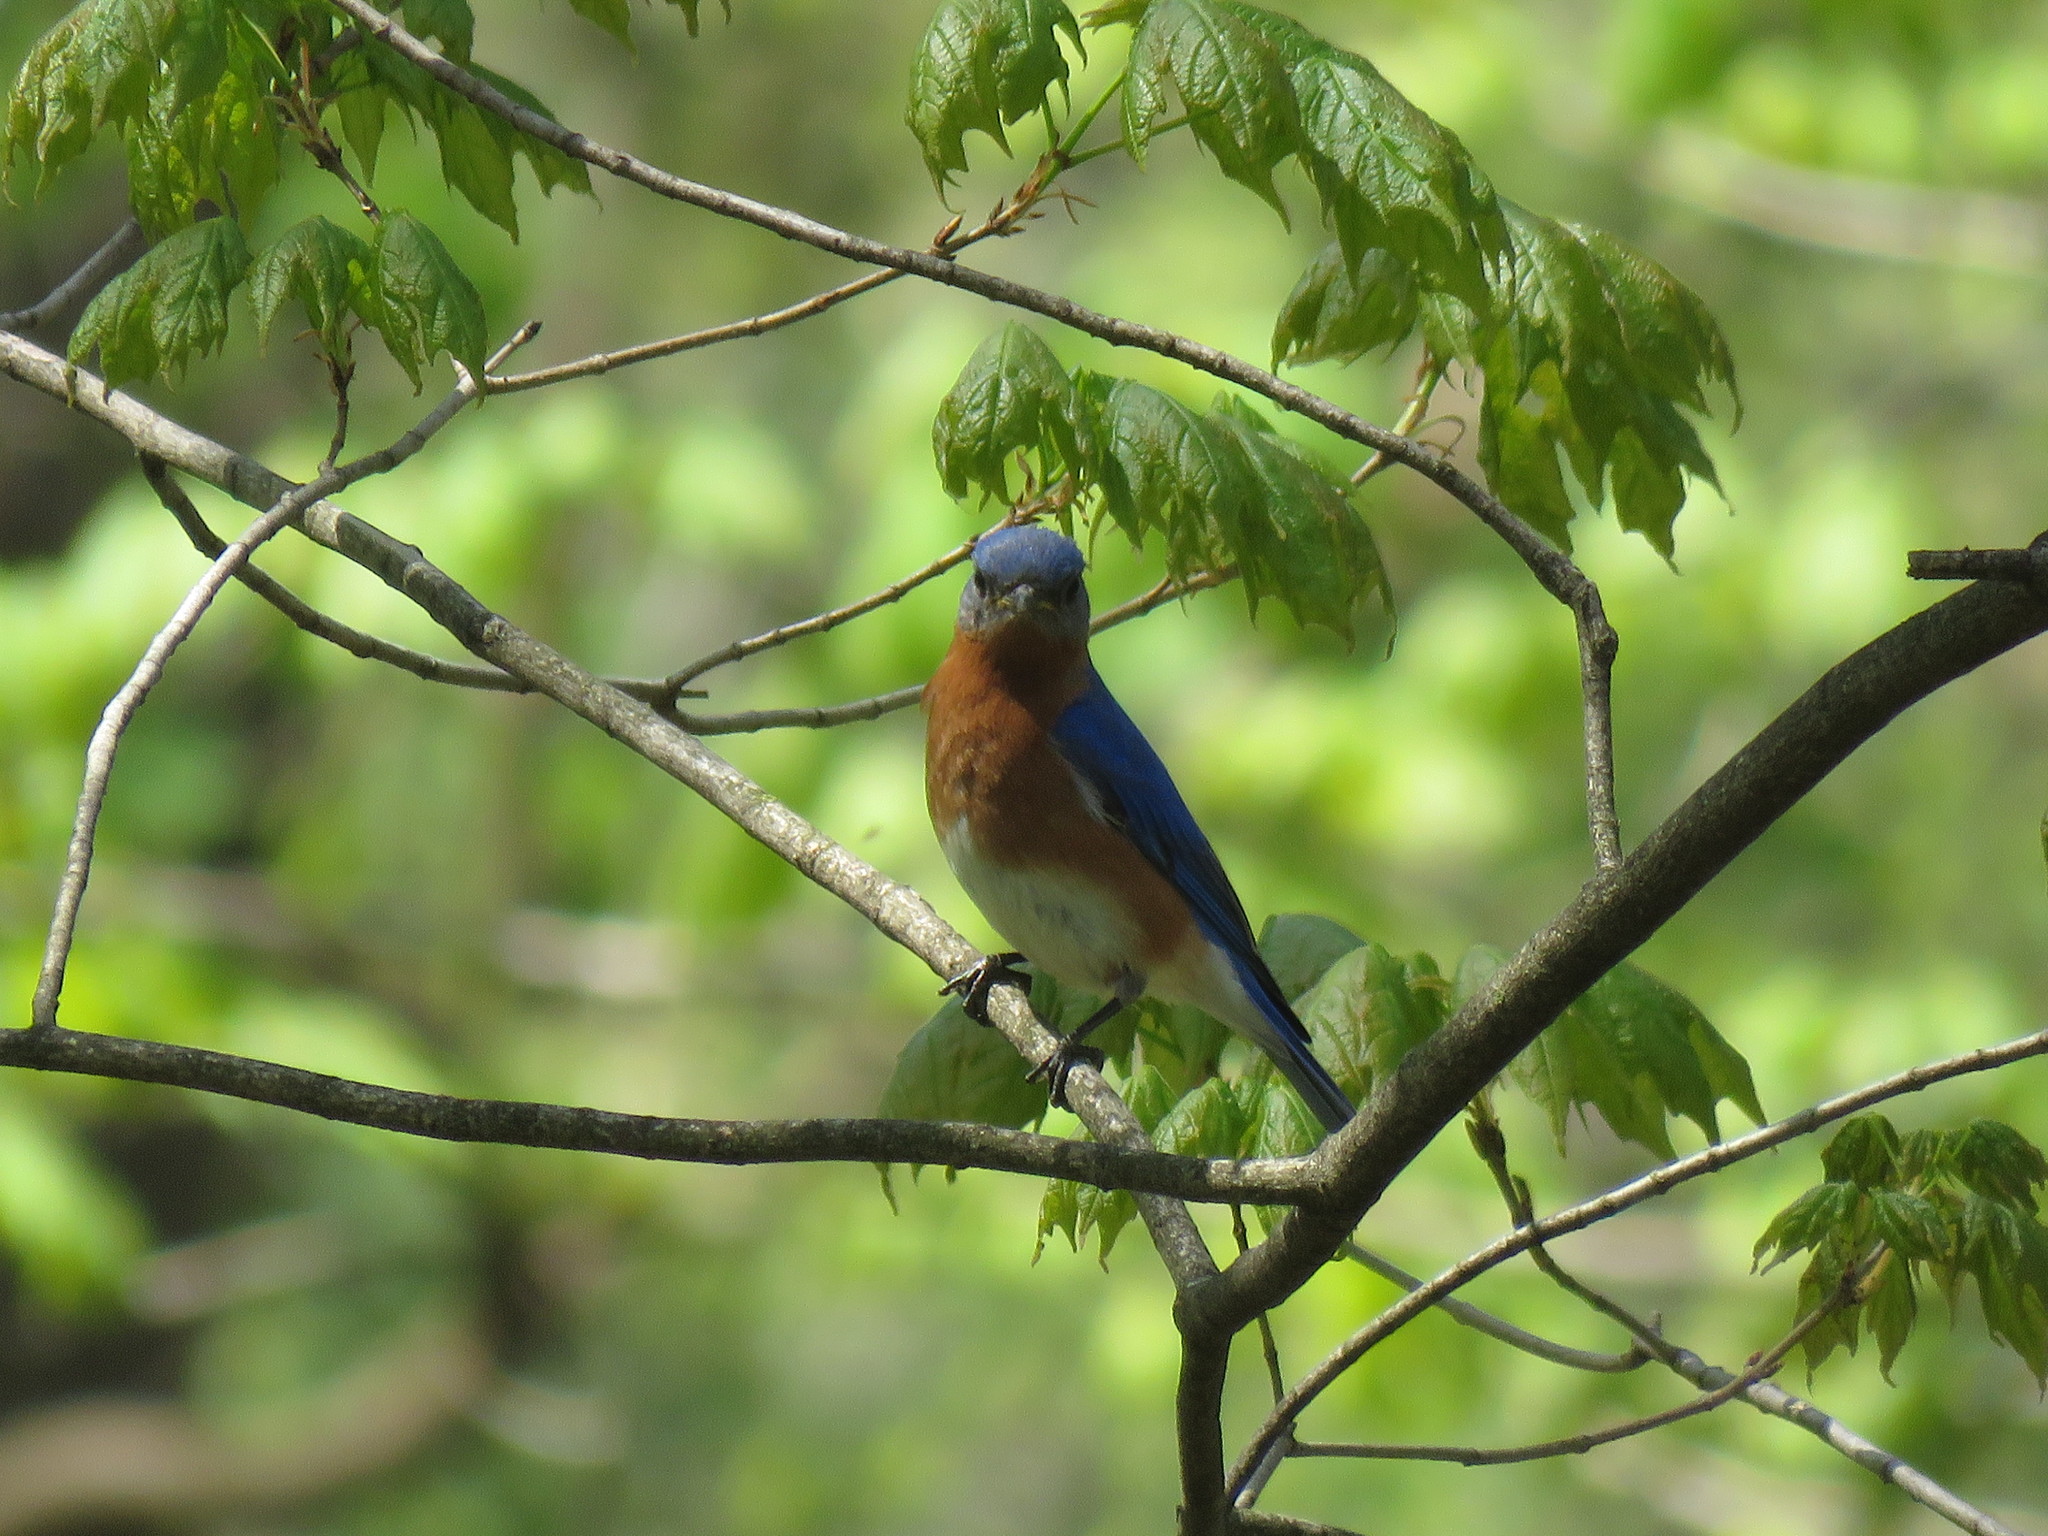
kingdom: Animalia
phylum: Chordata
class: Aves
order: Passeriformes
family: Turdidae
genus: Sialia
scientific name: Sialia sialis
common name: Eastern bluebird
